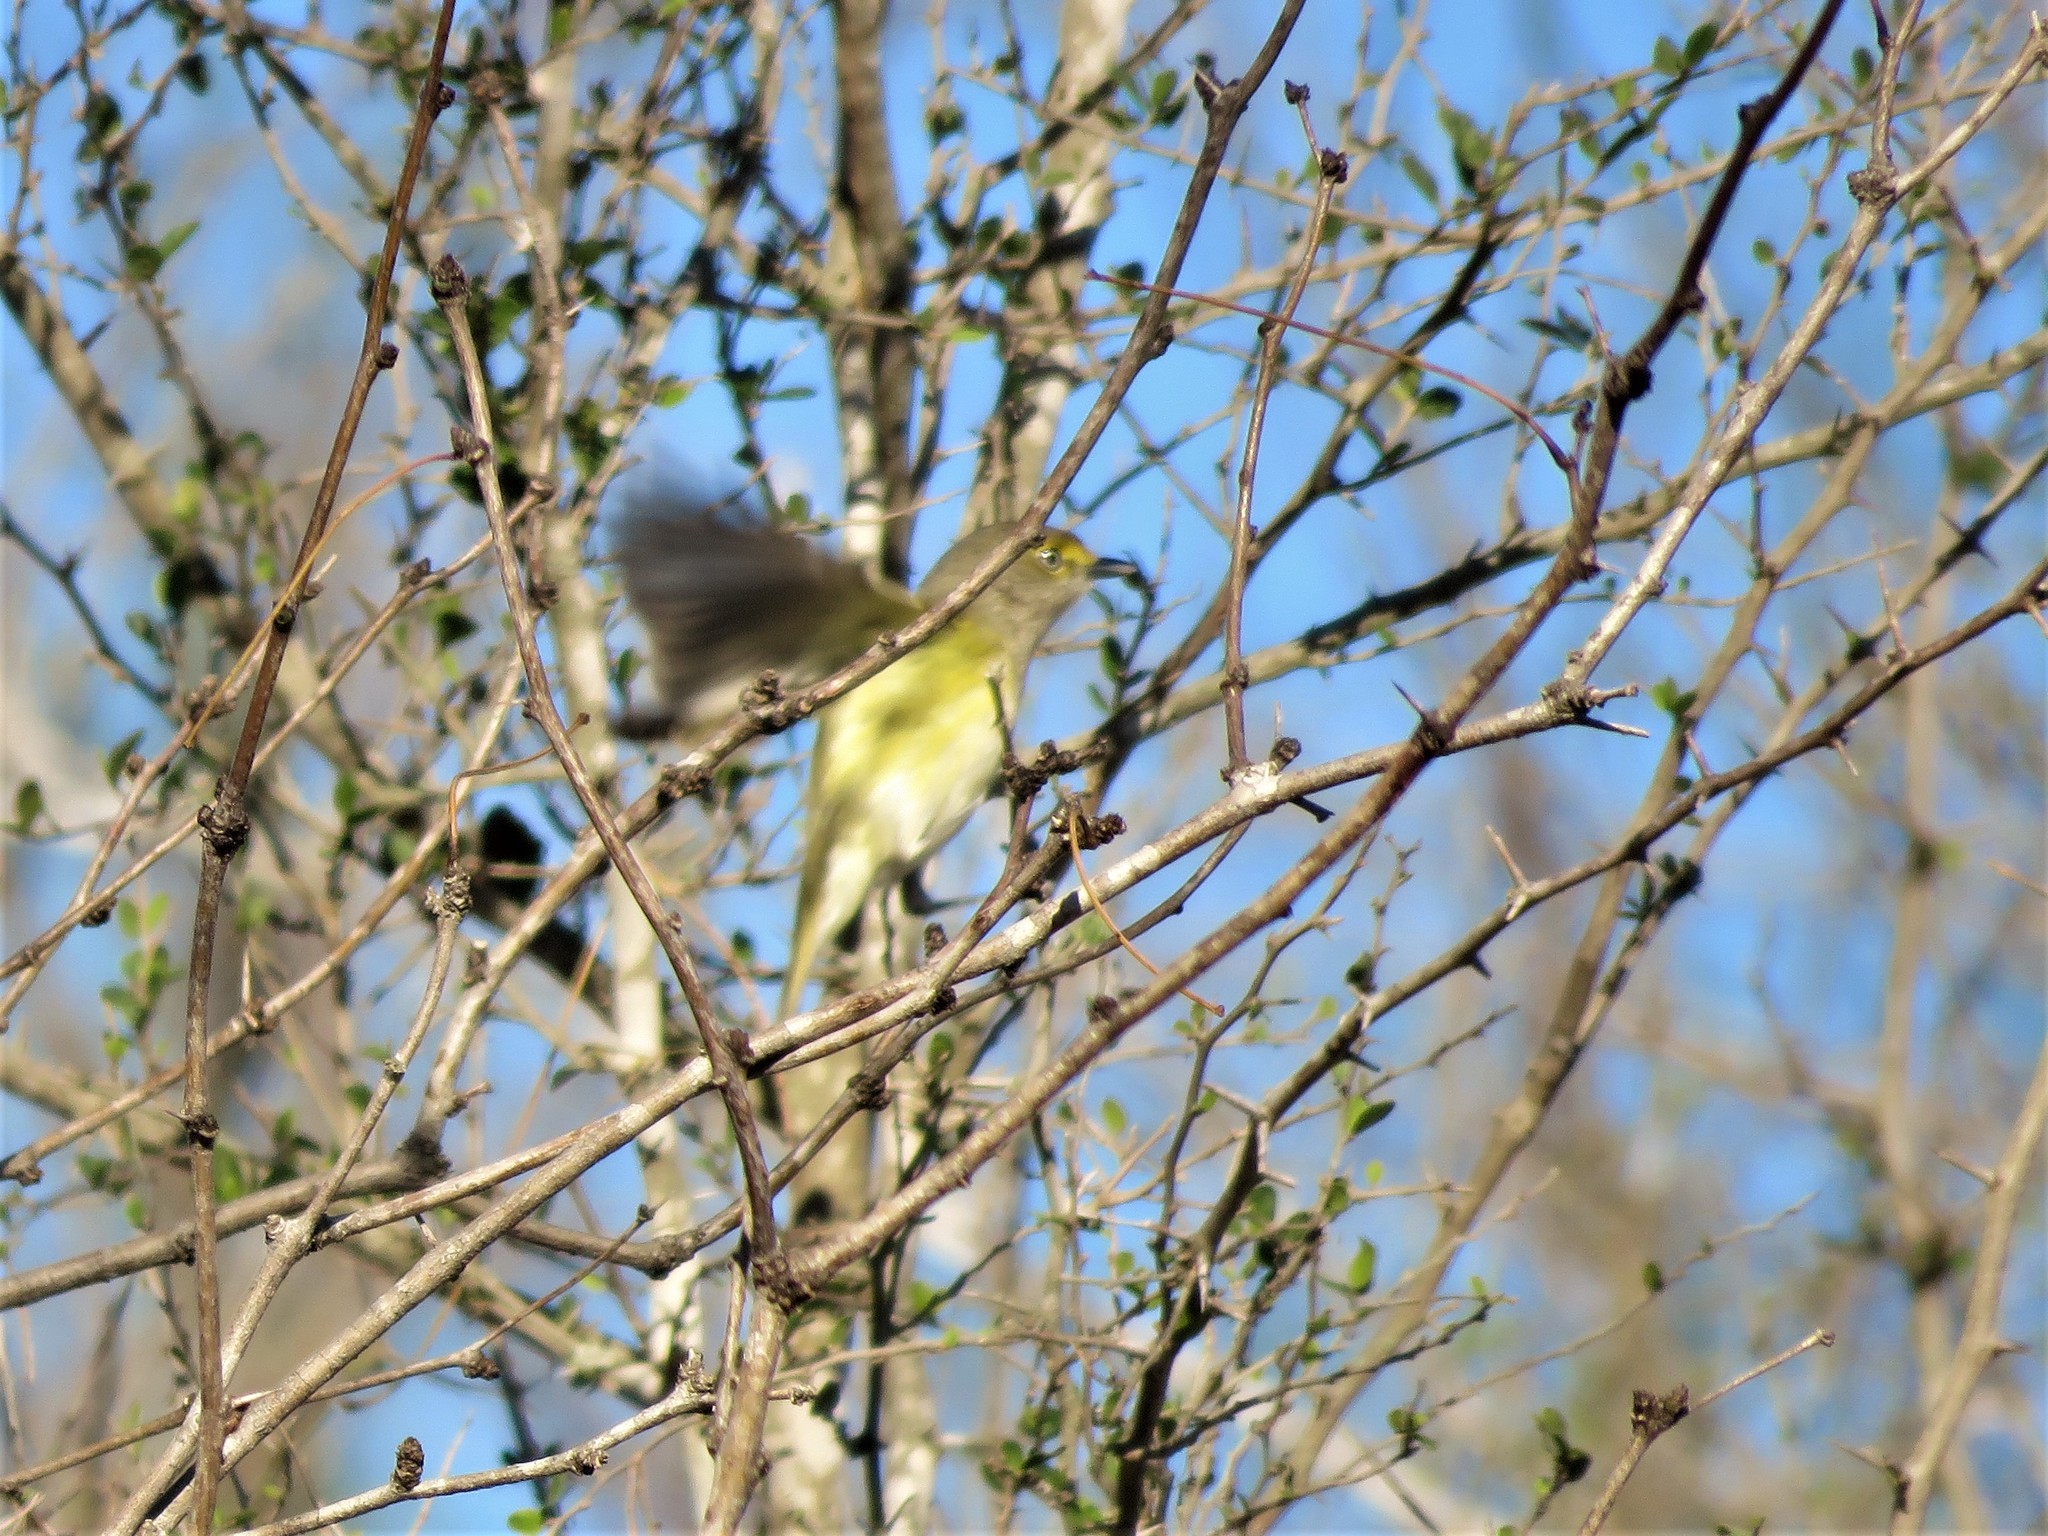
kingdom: Animalia
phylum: Chordata
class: Aves
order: Passeriformes
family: Vireonidae
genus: Vireo
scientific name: Vireo griseus
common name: White-eyed vireo
